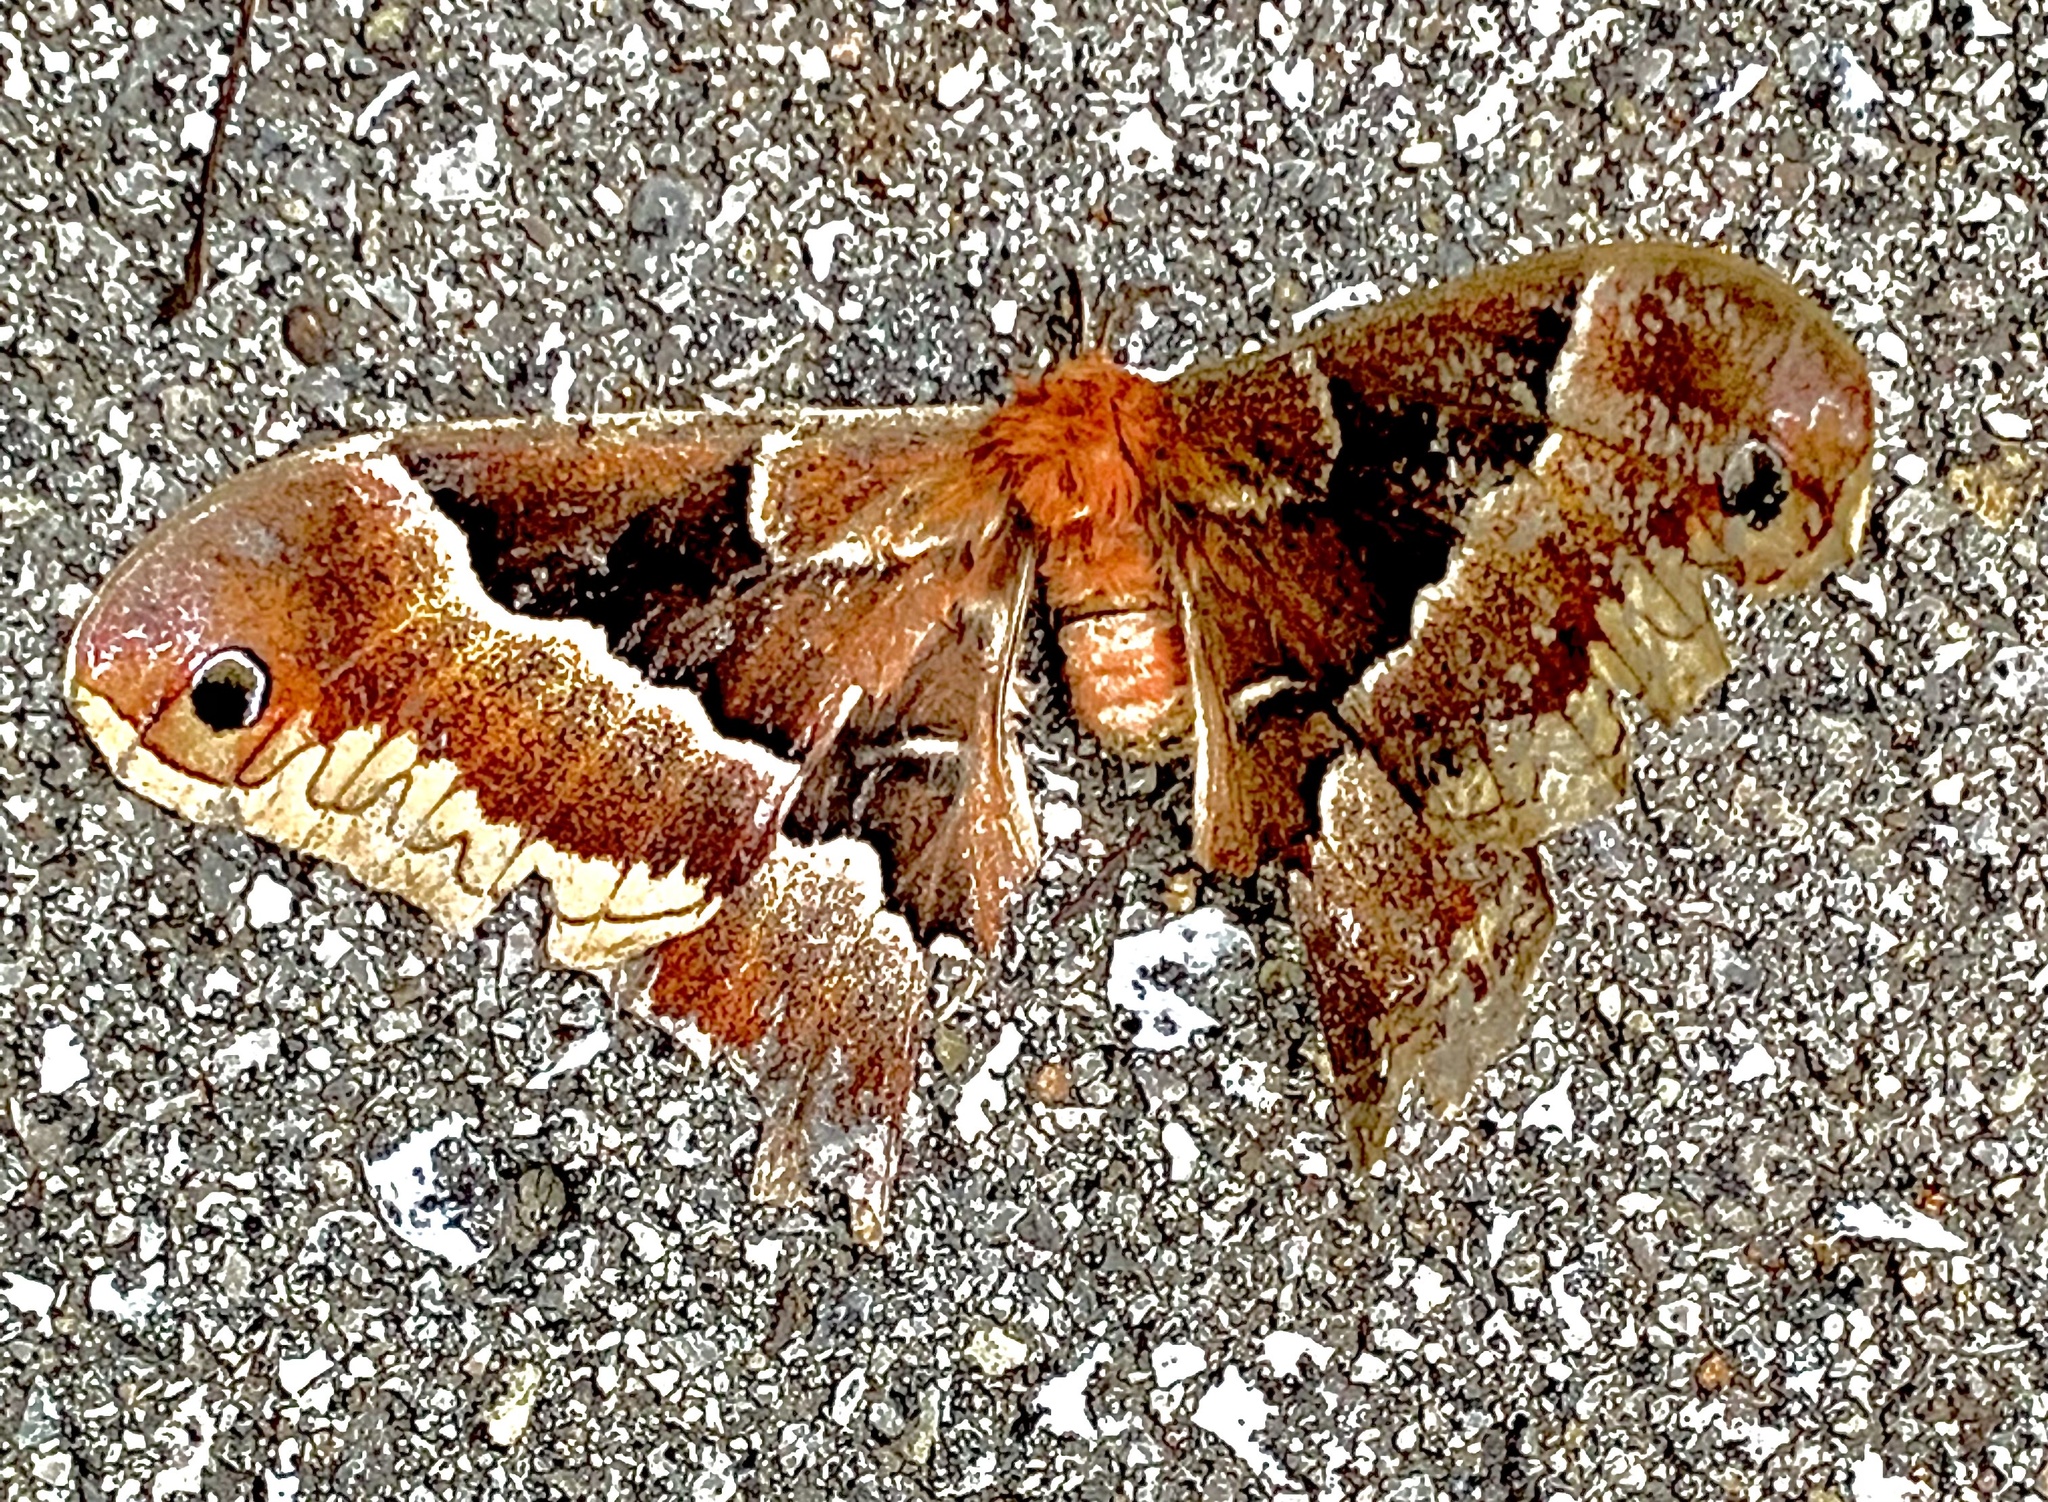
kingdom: Animalia
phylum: Arthropoda
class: Insecta
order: Lepidoptera
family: Saturniidae
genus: Callosamia
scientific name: Callosamia promethea
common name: Promethea silkmoth
